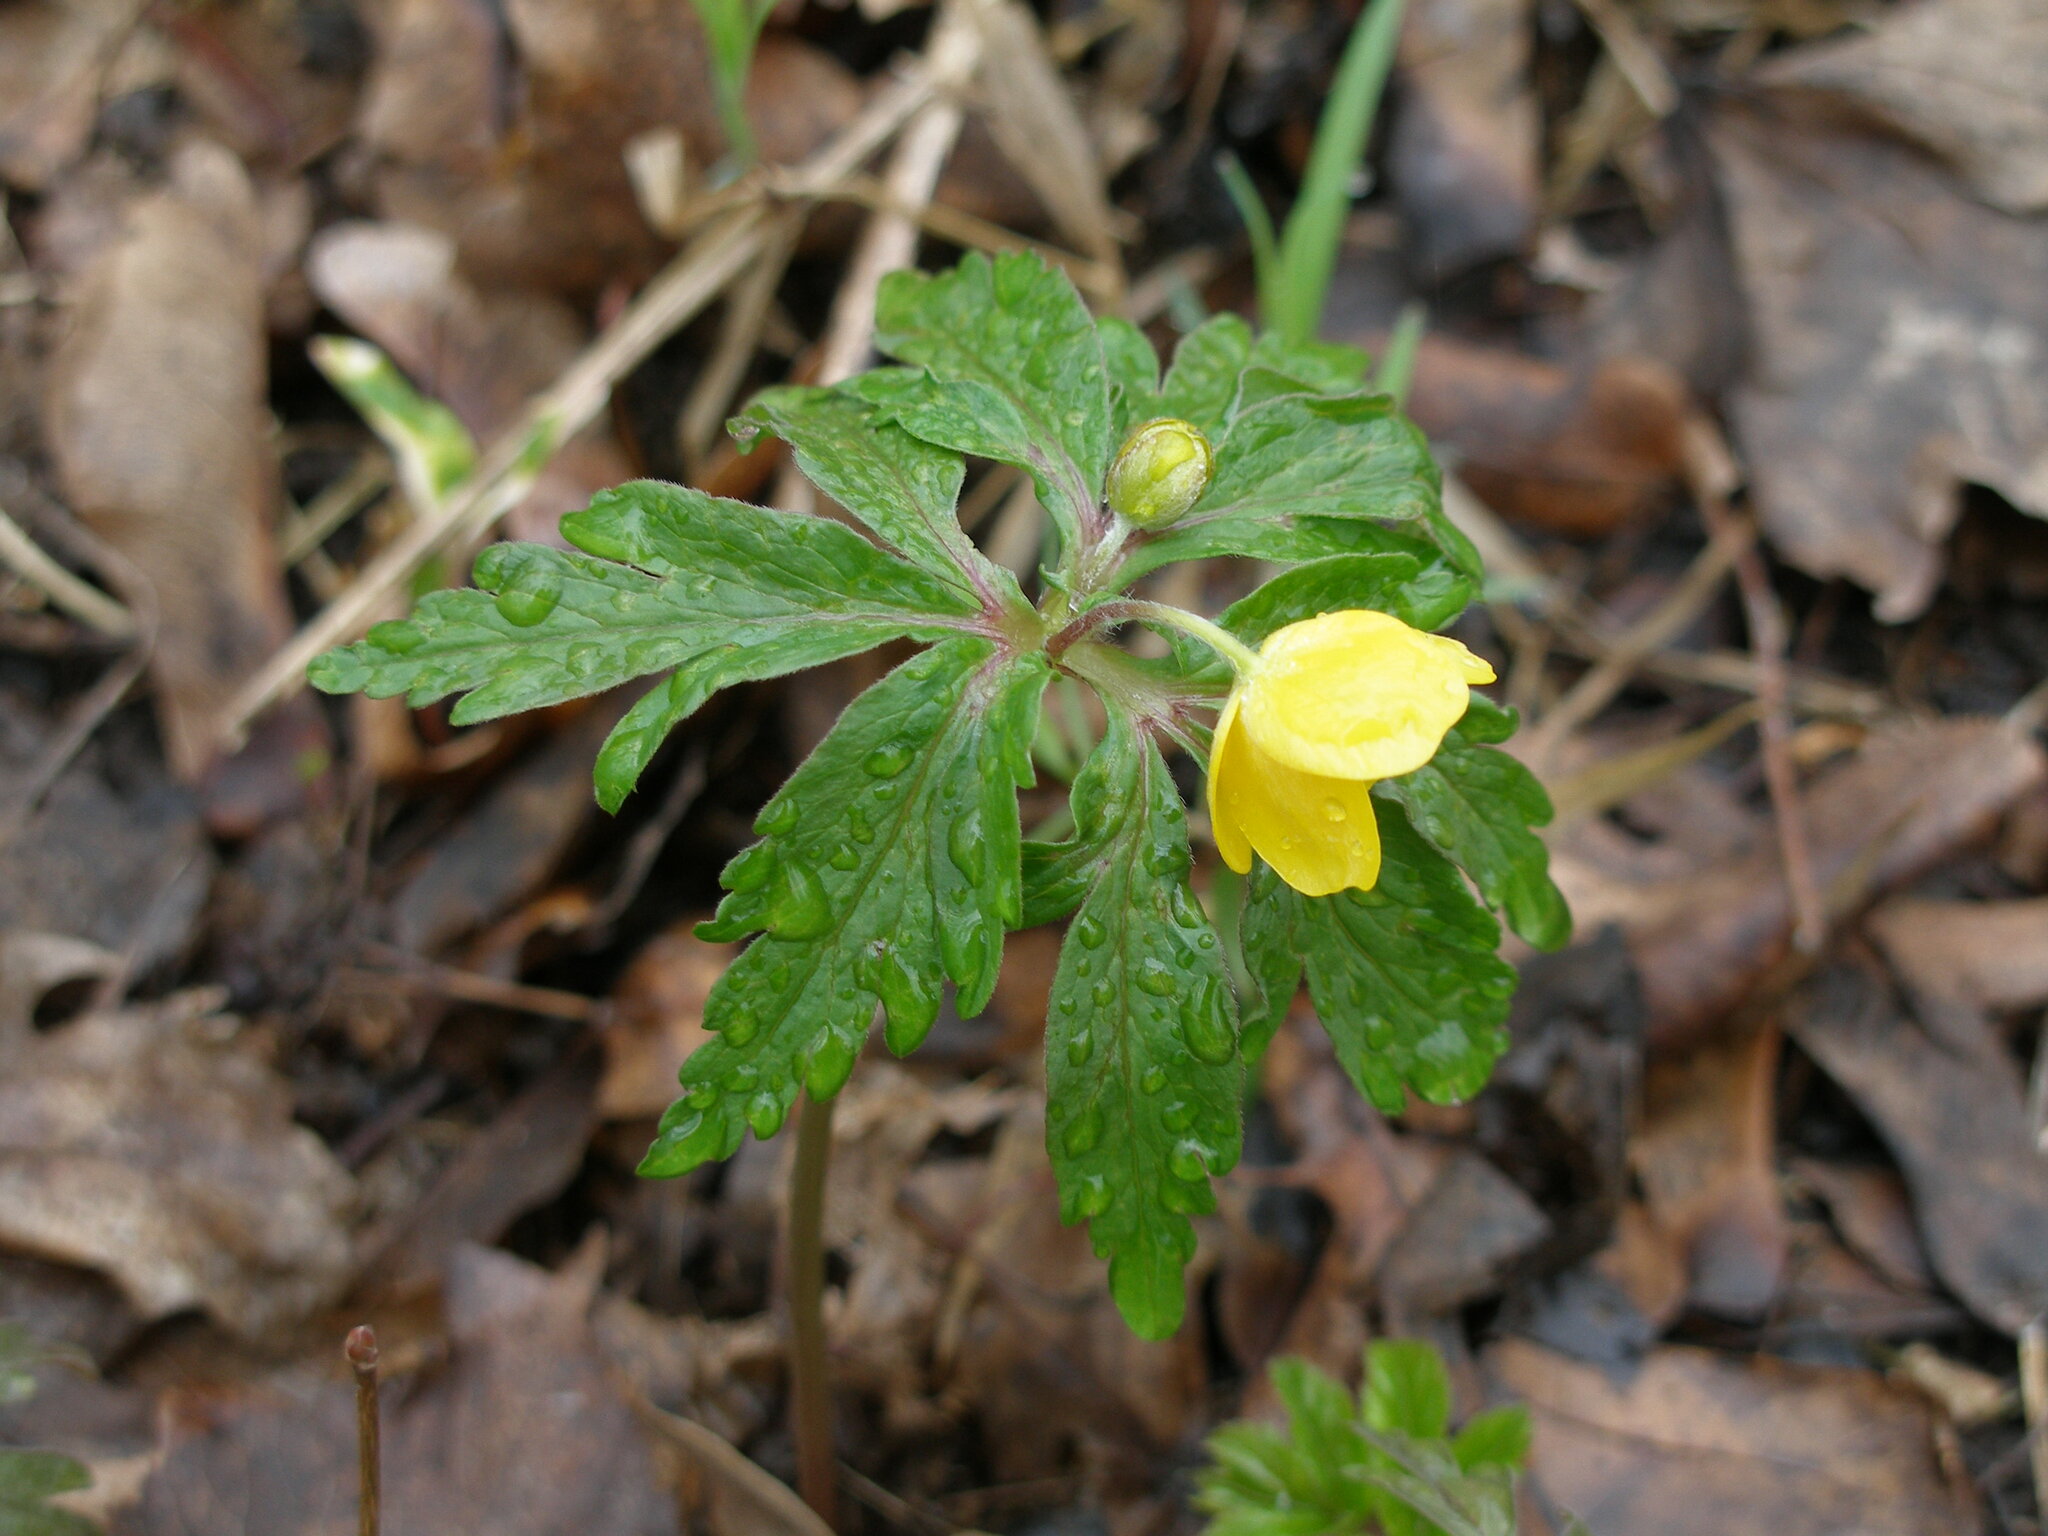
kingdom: Plantae
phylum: Tracheophyta
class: Magnoliopsida
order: Ranunculales
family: Ranunculaceae
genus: Anemone
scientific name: Anemone ranunculoides
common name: Yellow anemone
